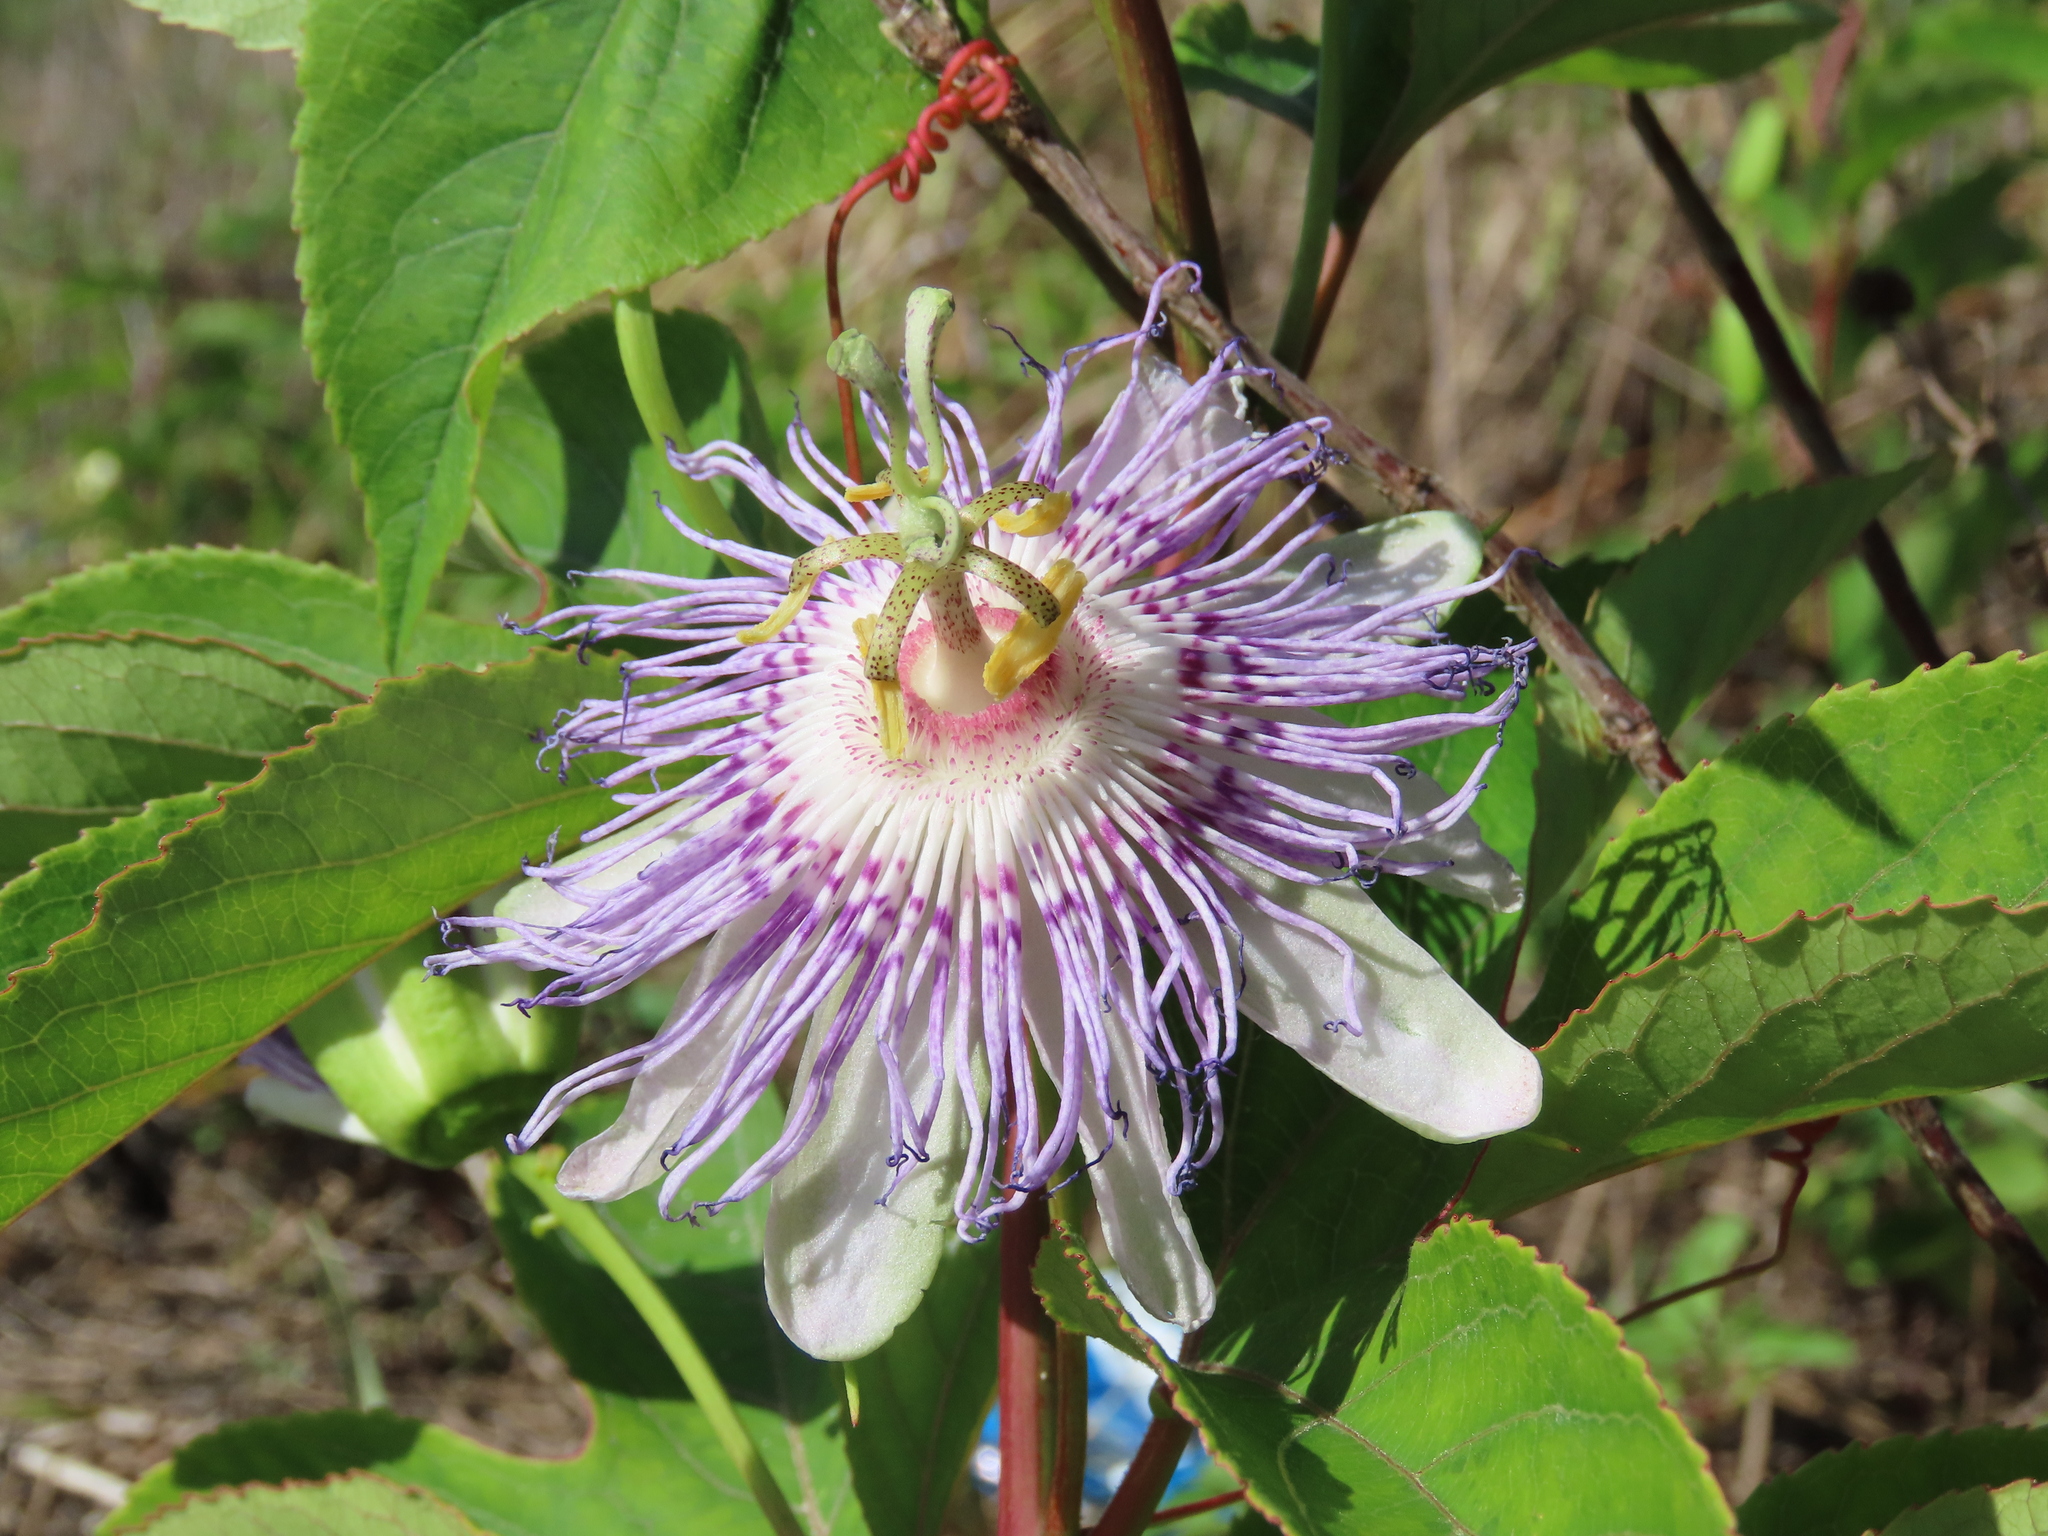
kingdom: Plantae
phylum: Tracheophyta
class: Magnoliopsida
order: Malpighiales
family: Passifloraceae
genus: Passiflora
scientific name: Passiflora incarnata
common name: Apricot-vine
